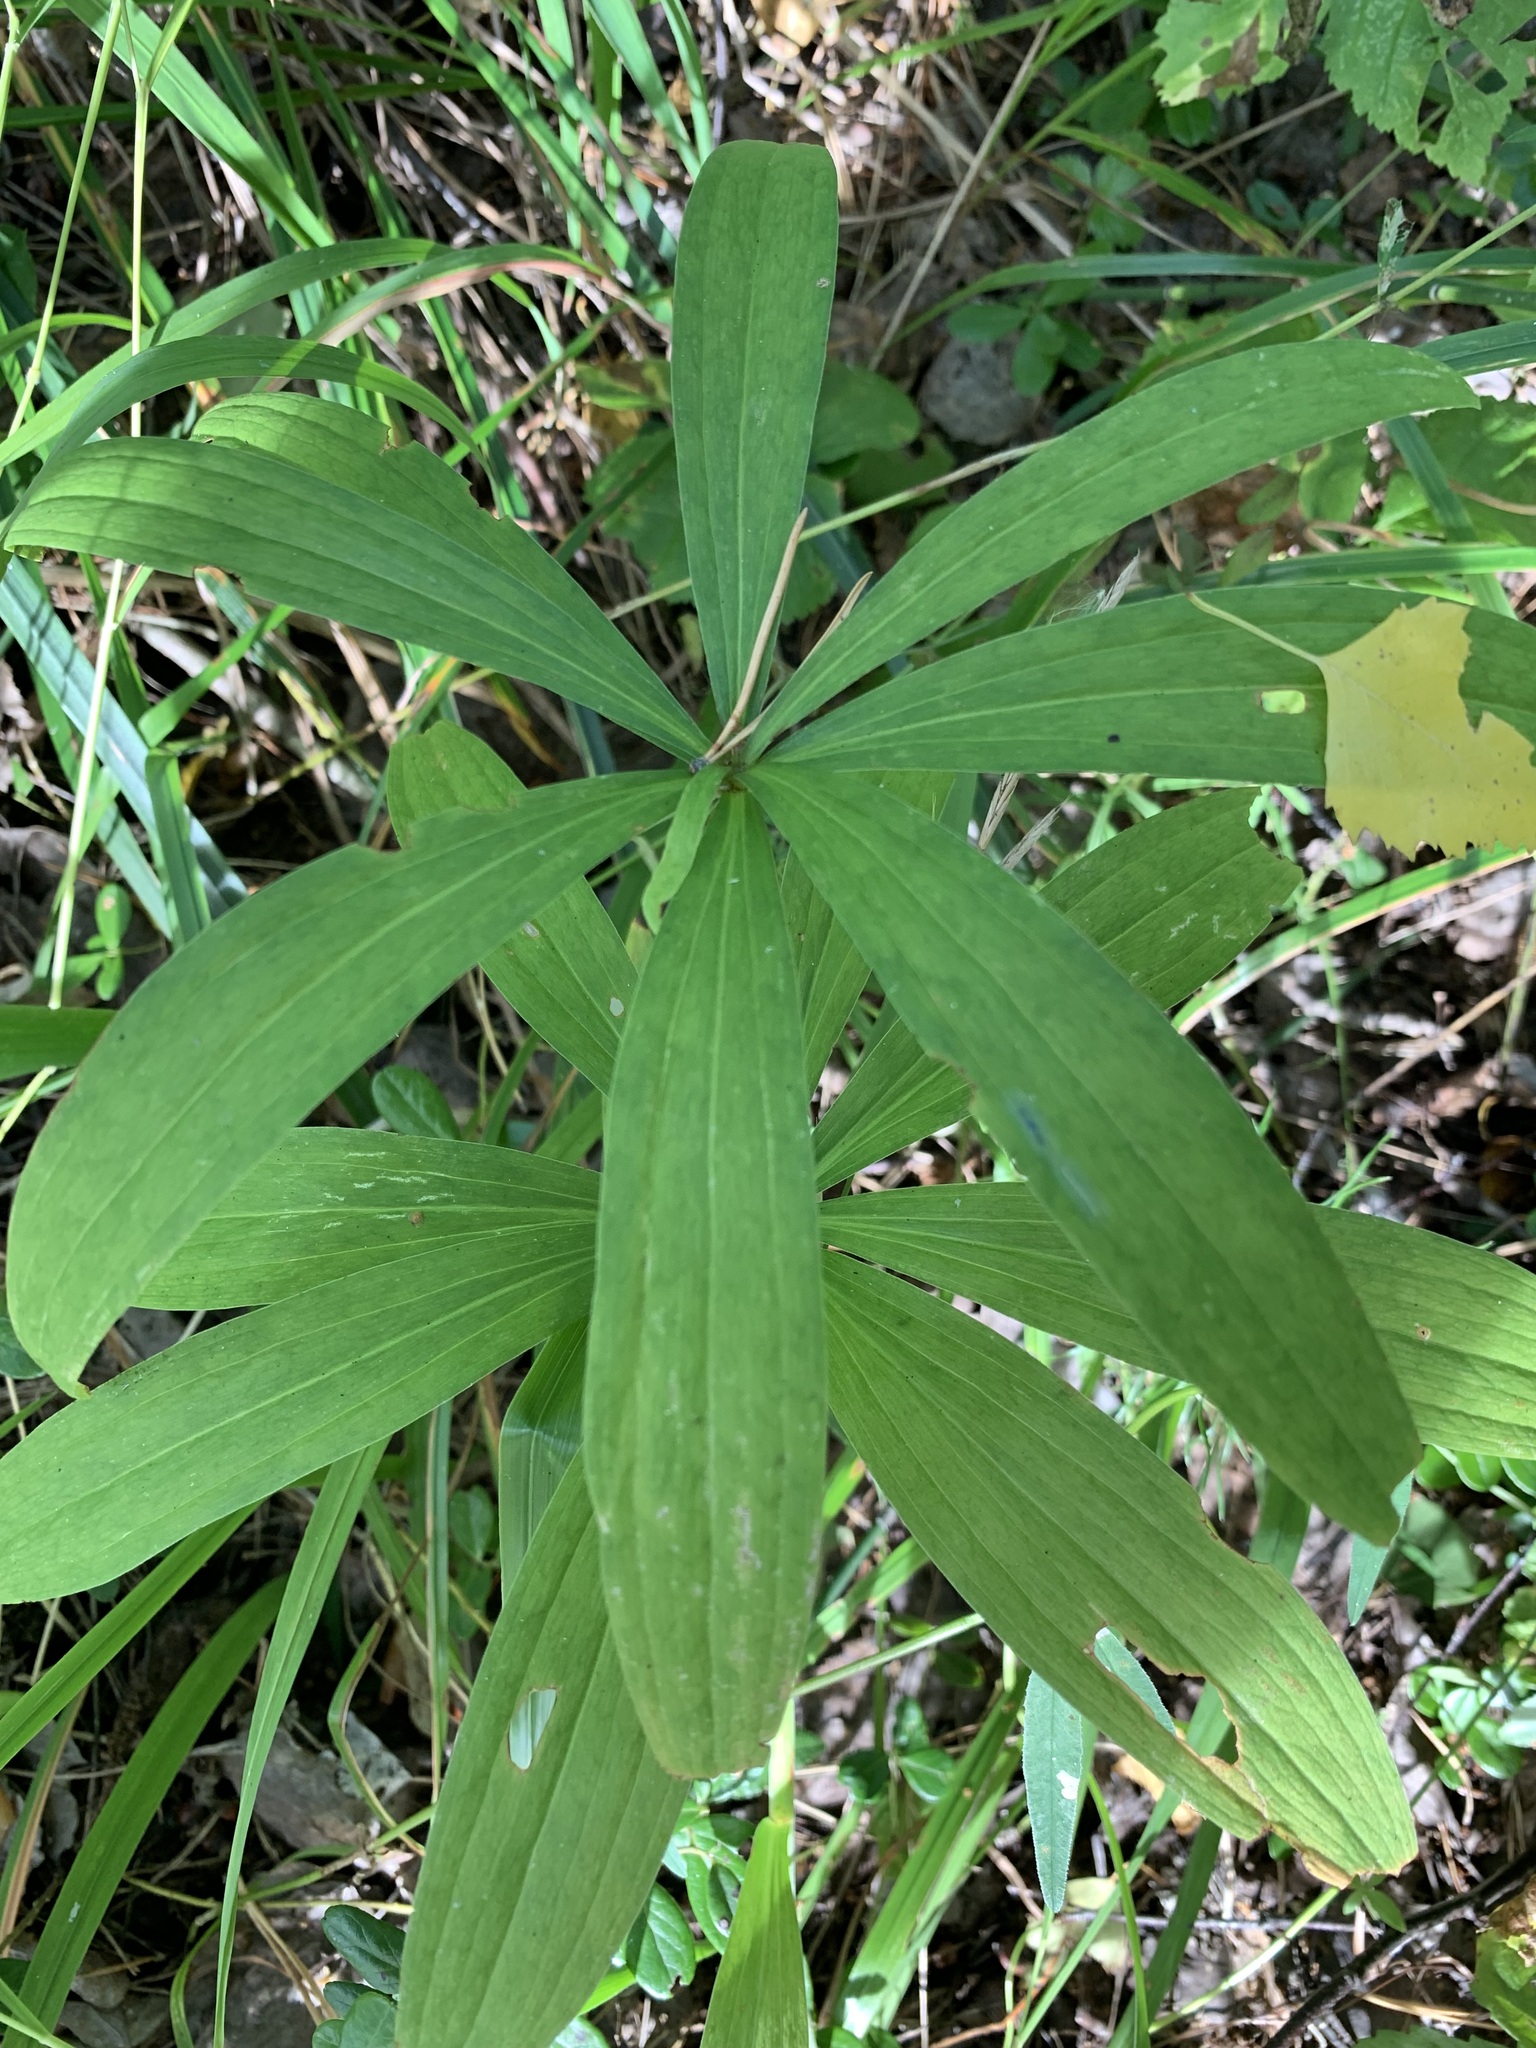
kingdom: Plantae
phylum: Tracheophyta
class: Liliopsida
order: Liliales
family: Liliaceae
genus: Lilium
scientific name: Lilium martagon
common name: Martagon lily
